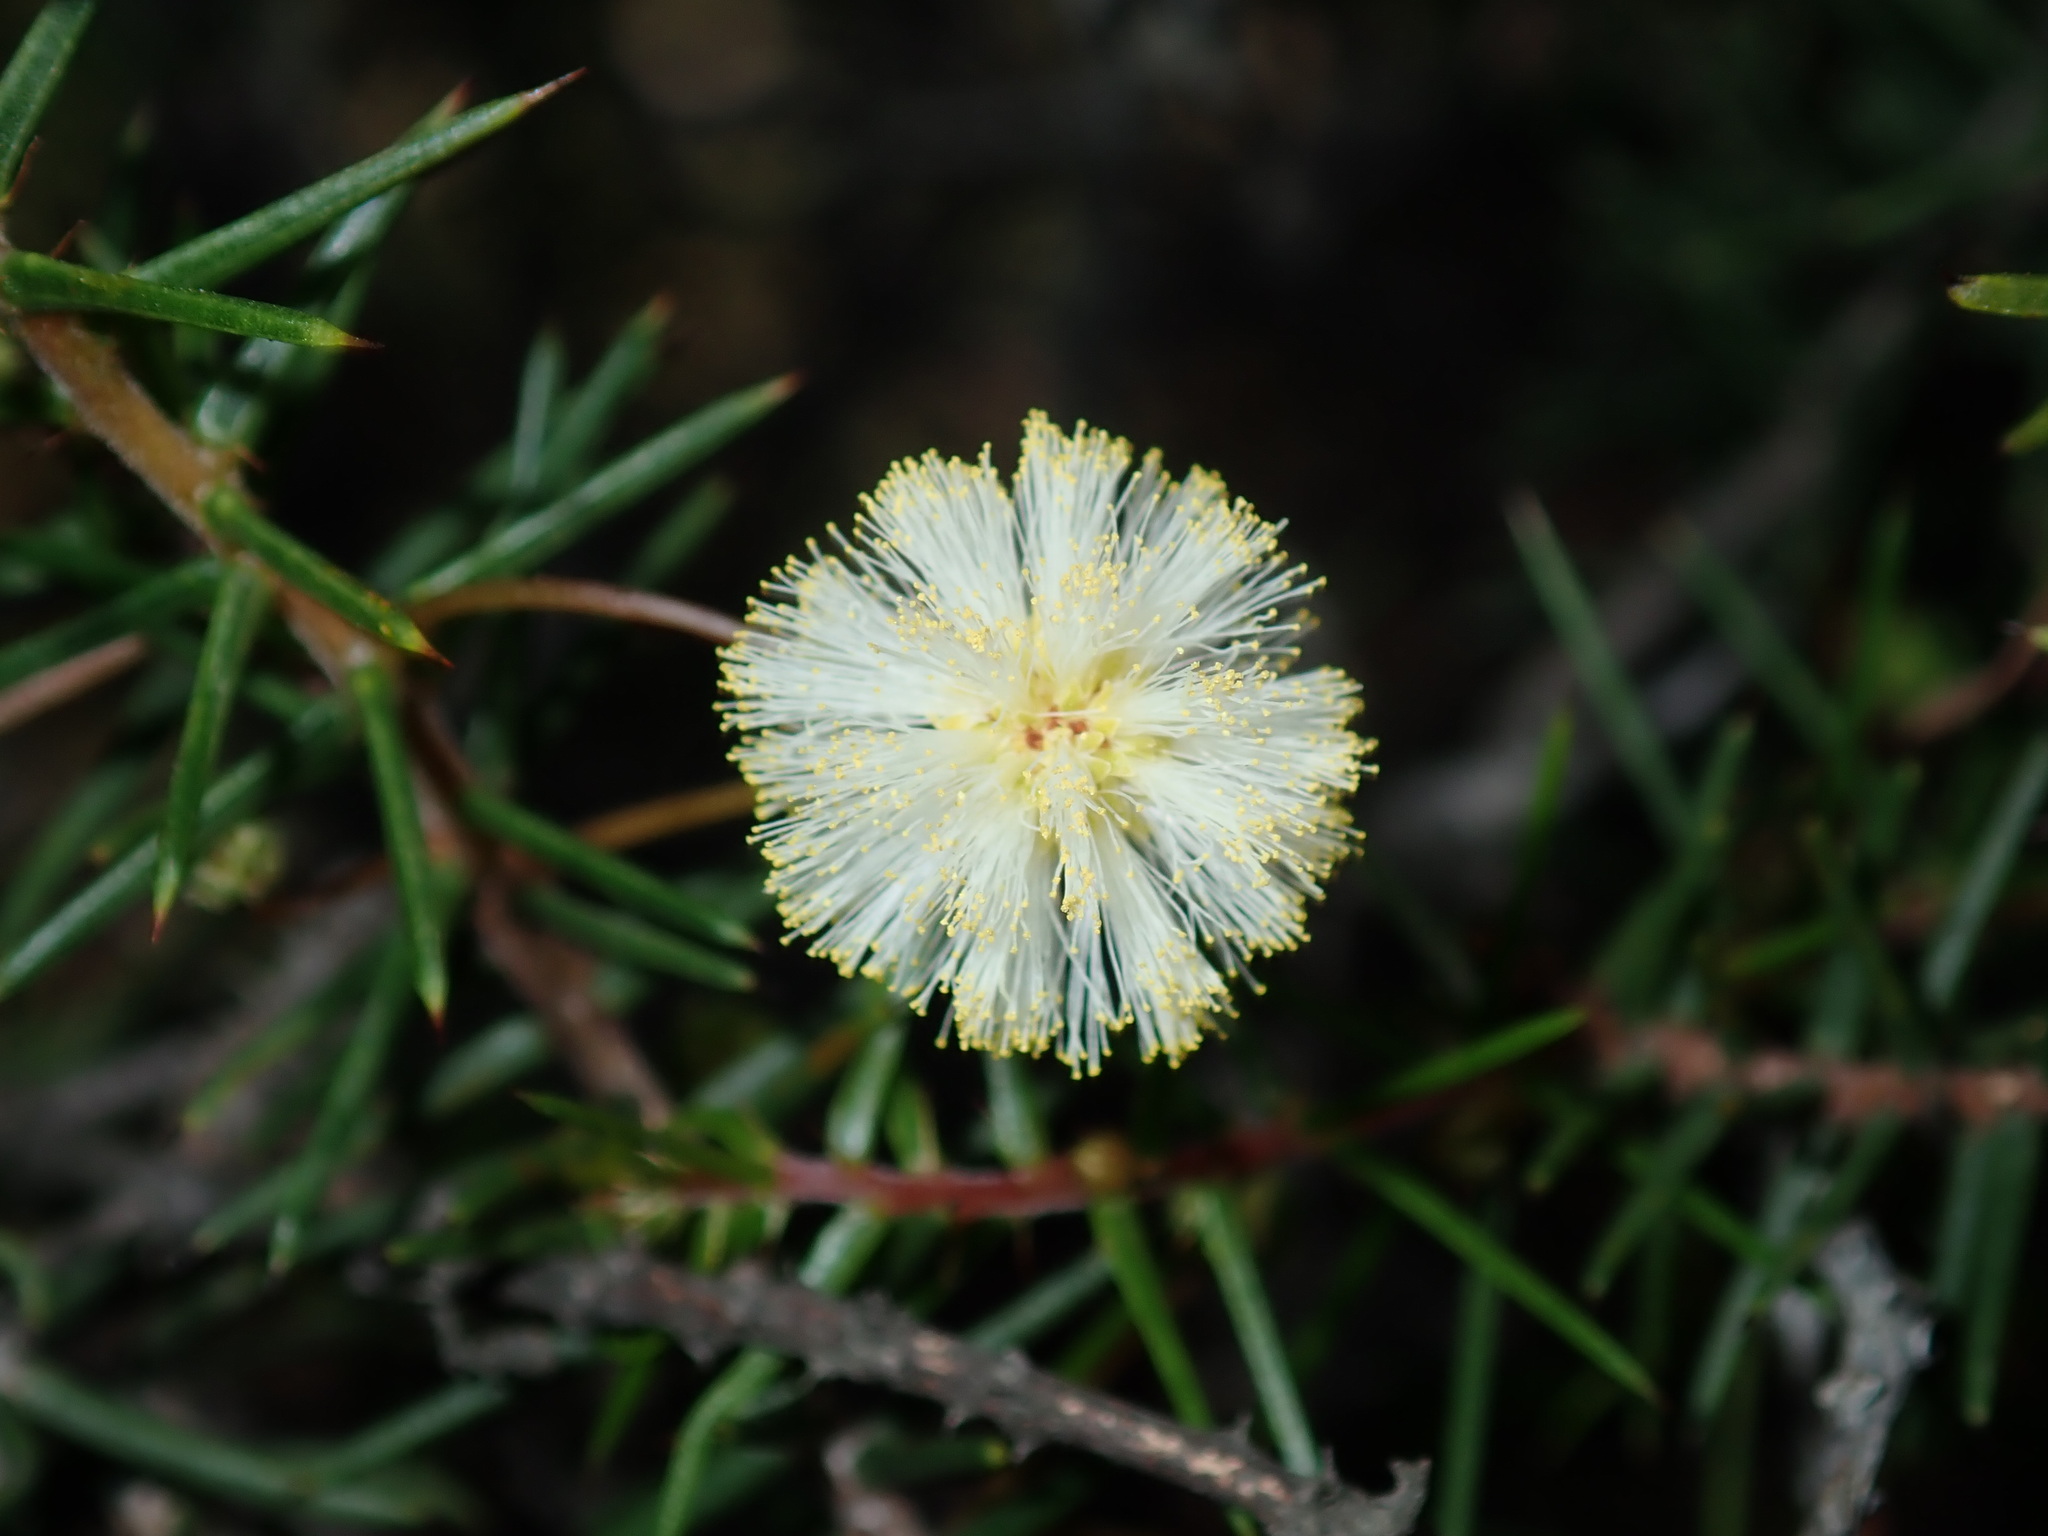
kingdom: Plantae
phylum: Tracheophyta
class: Magnoliopsida
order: Fabales
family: Fabaceae
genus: Acacia
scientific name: Acacia ulicifolia
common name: Juniper wattle
